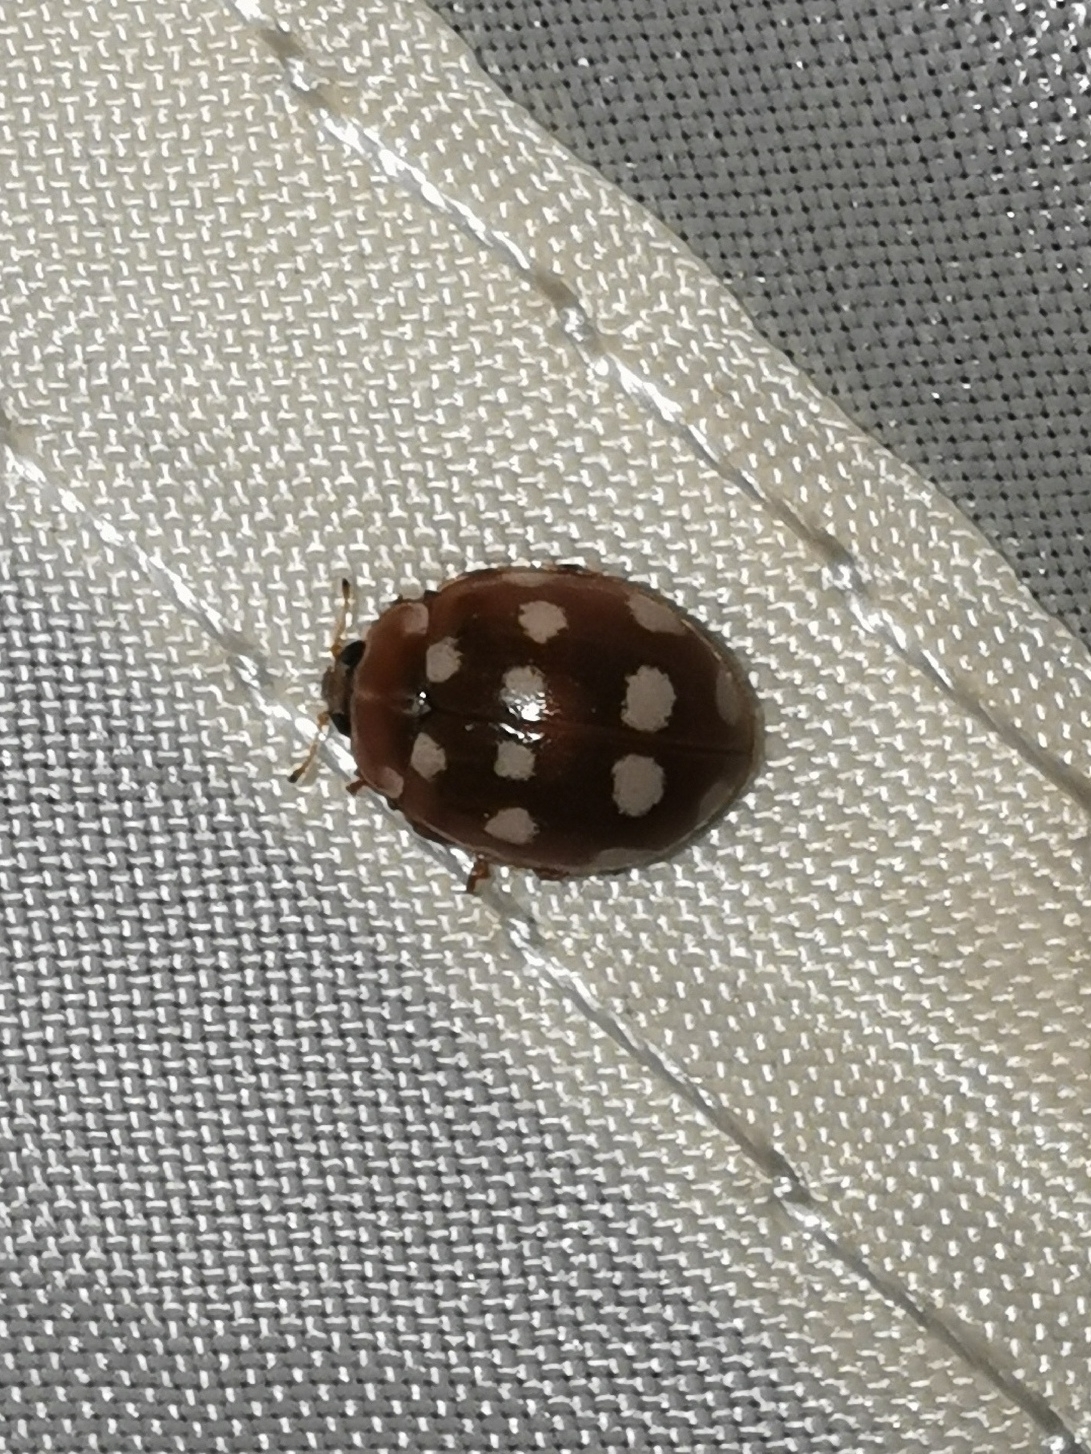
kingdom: Animalia
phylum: Arthropoda
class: Insecta
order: Coleoptera
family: Coccinellidae
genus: Calvia
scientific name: Calvia quatuordecimguttata
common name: Cream-spot ladybird
